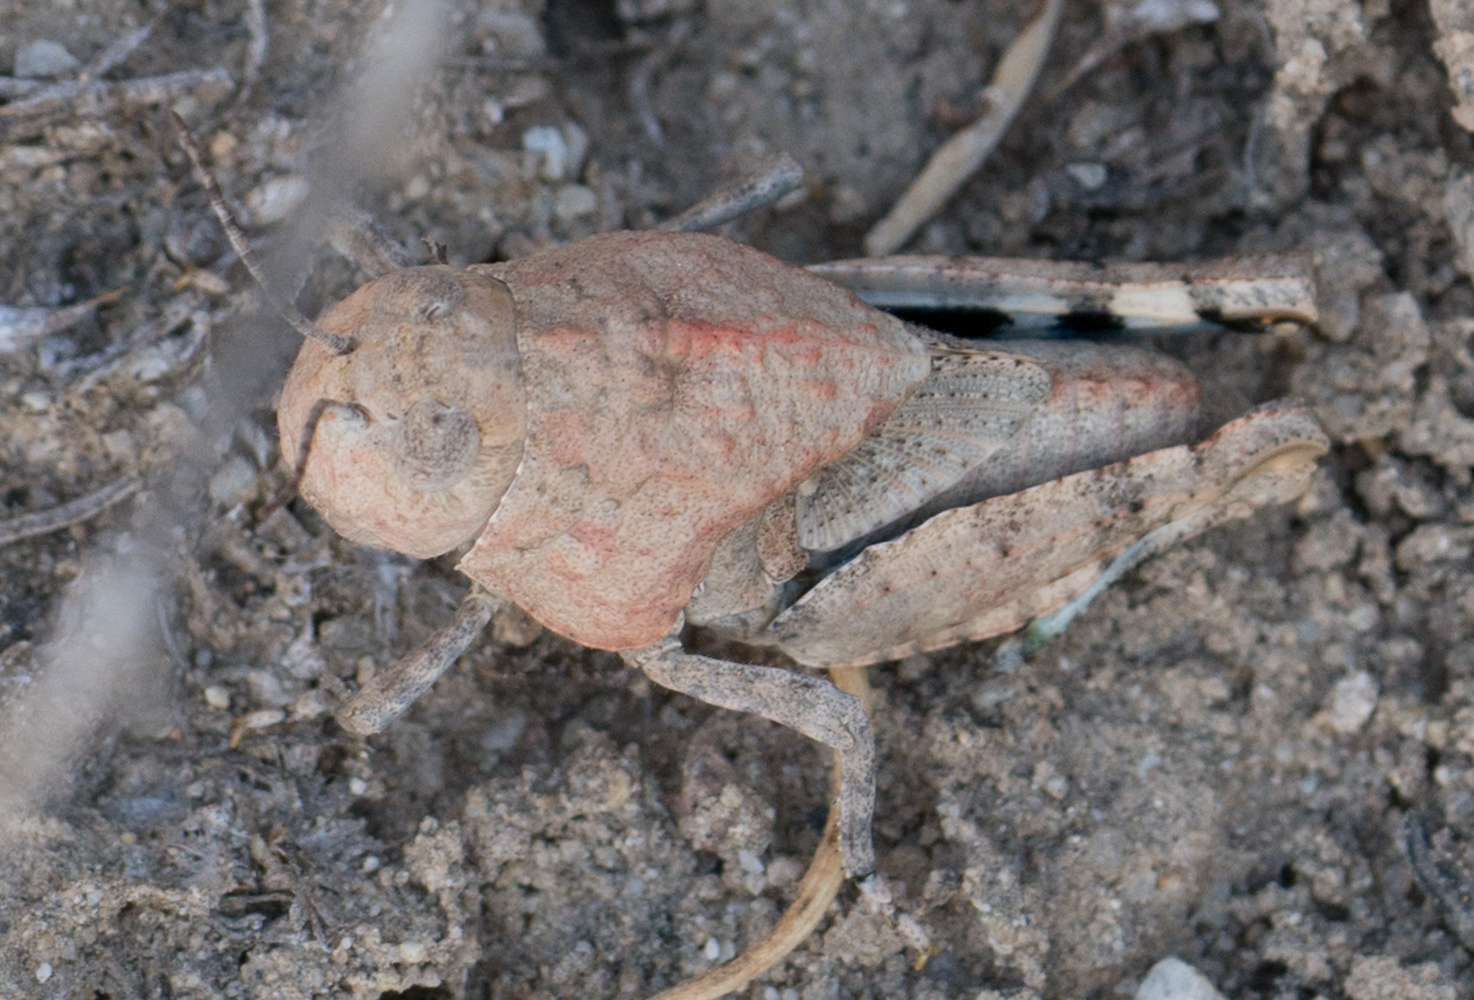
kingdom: Animalia
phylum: Arthropoda
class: Insecta
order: Orthoptera
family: Acrididae
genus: Leprus
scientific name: Leprus intermedius
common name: Saussure's blue-winged grasshopper
